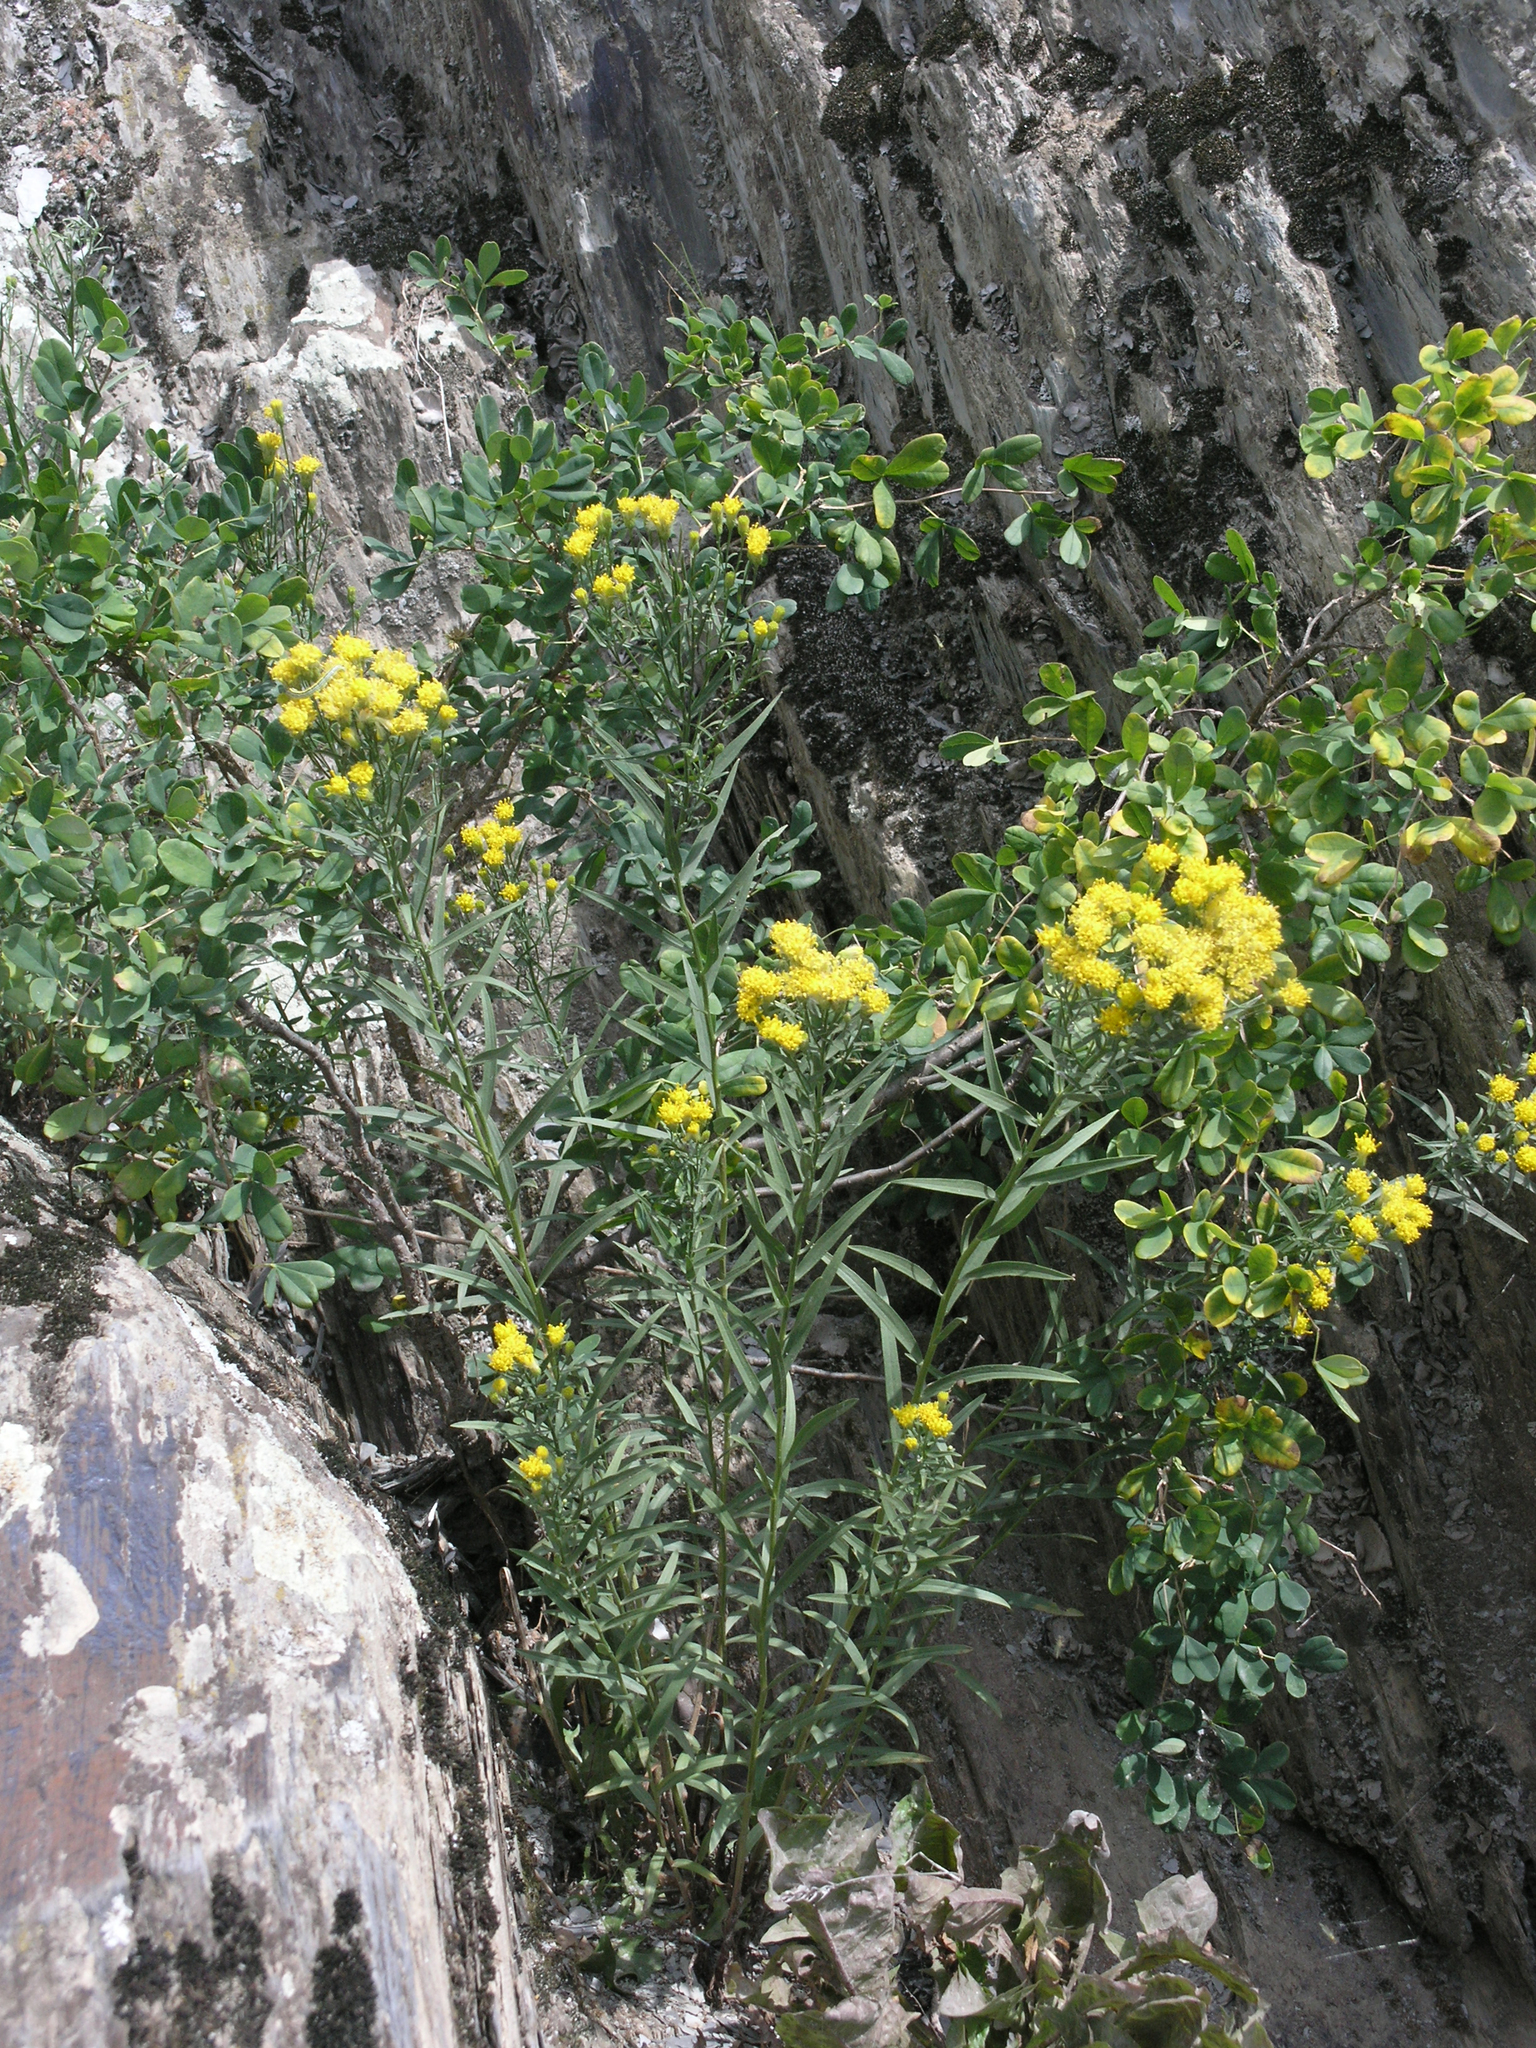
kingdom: Plantae
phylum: Tracheophyta
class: Magnoliopsida
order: Asterales
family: Asteraceae
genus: Galatella
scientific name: Galatella biflora
